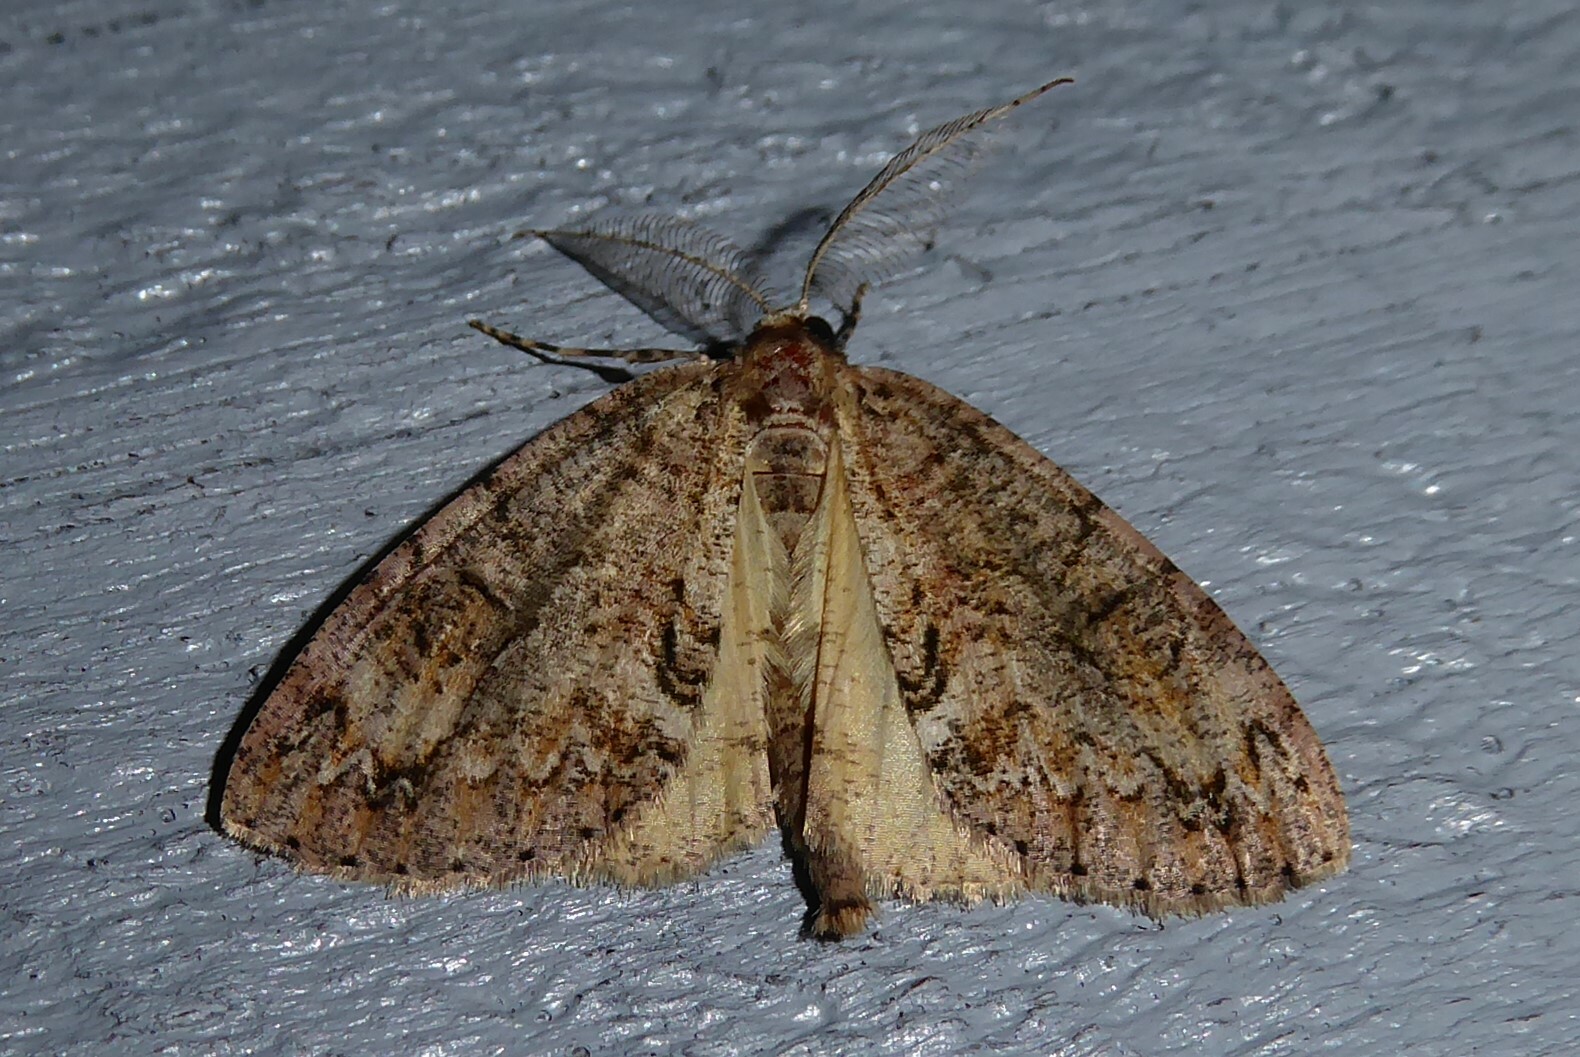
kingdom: Animalia
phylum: Arthropoda
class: Insecta
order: Lepidoptera
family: Geometridae
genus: Pseudocoremia
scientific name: Pseudocoremia suavis
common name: Common forest looper
